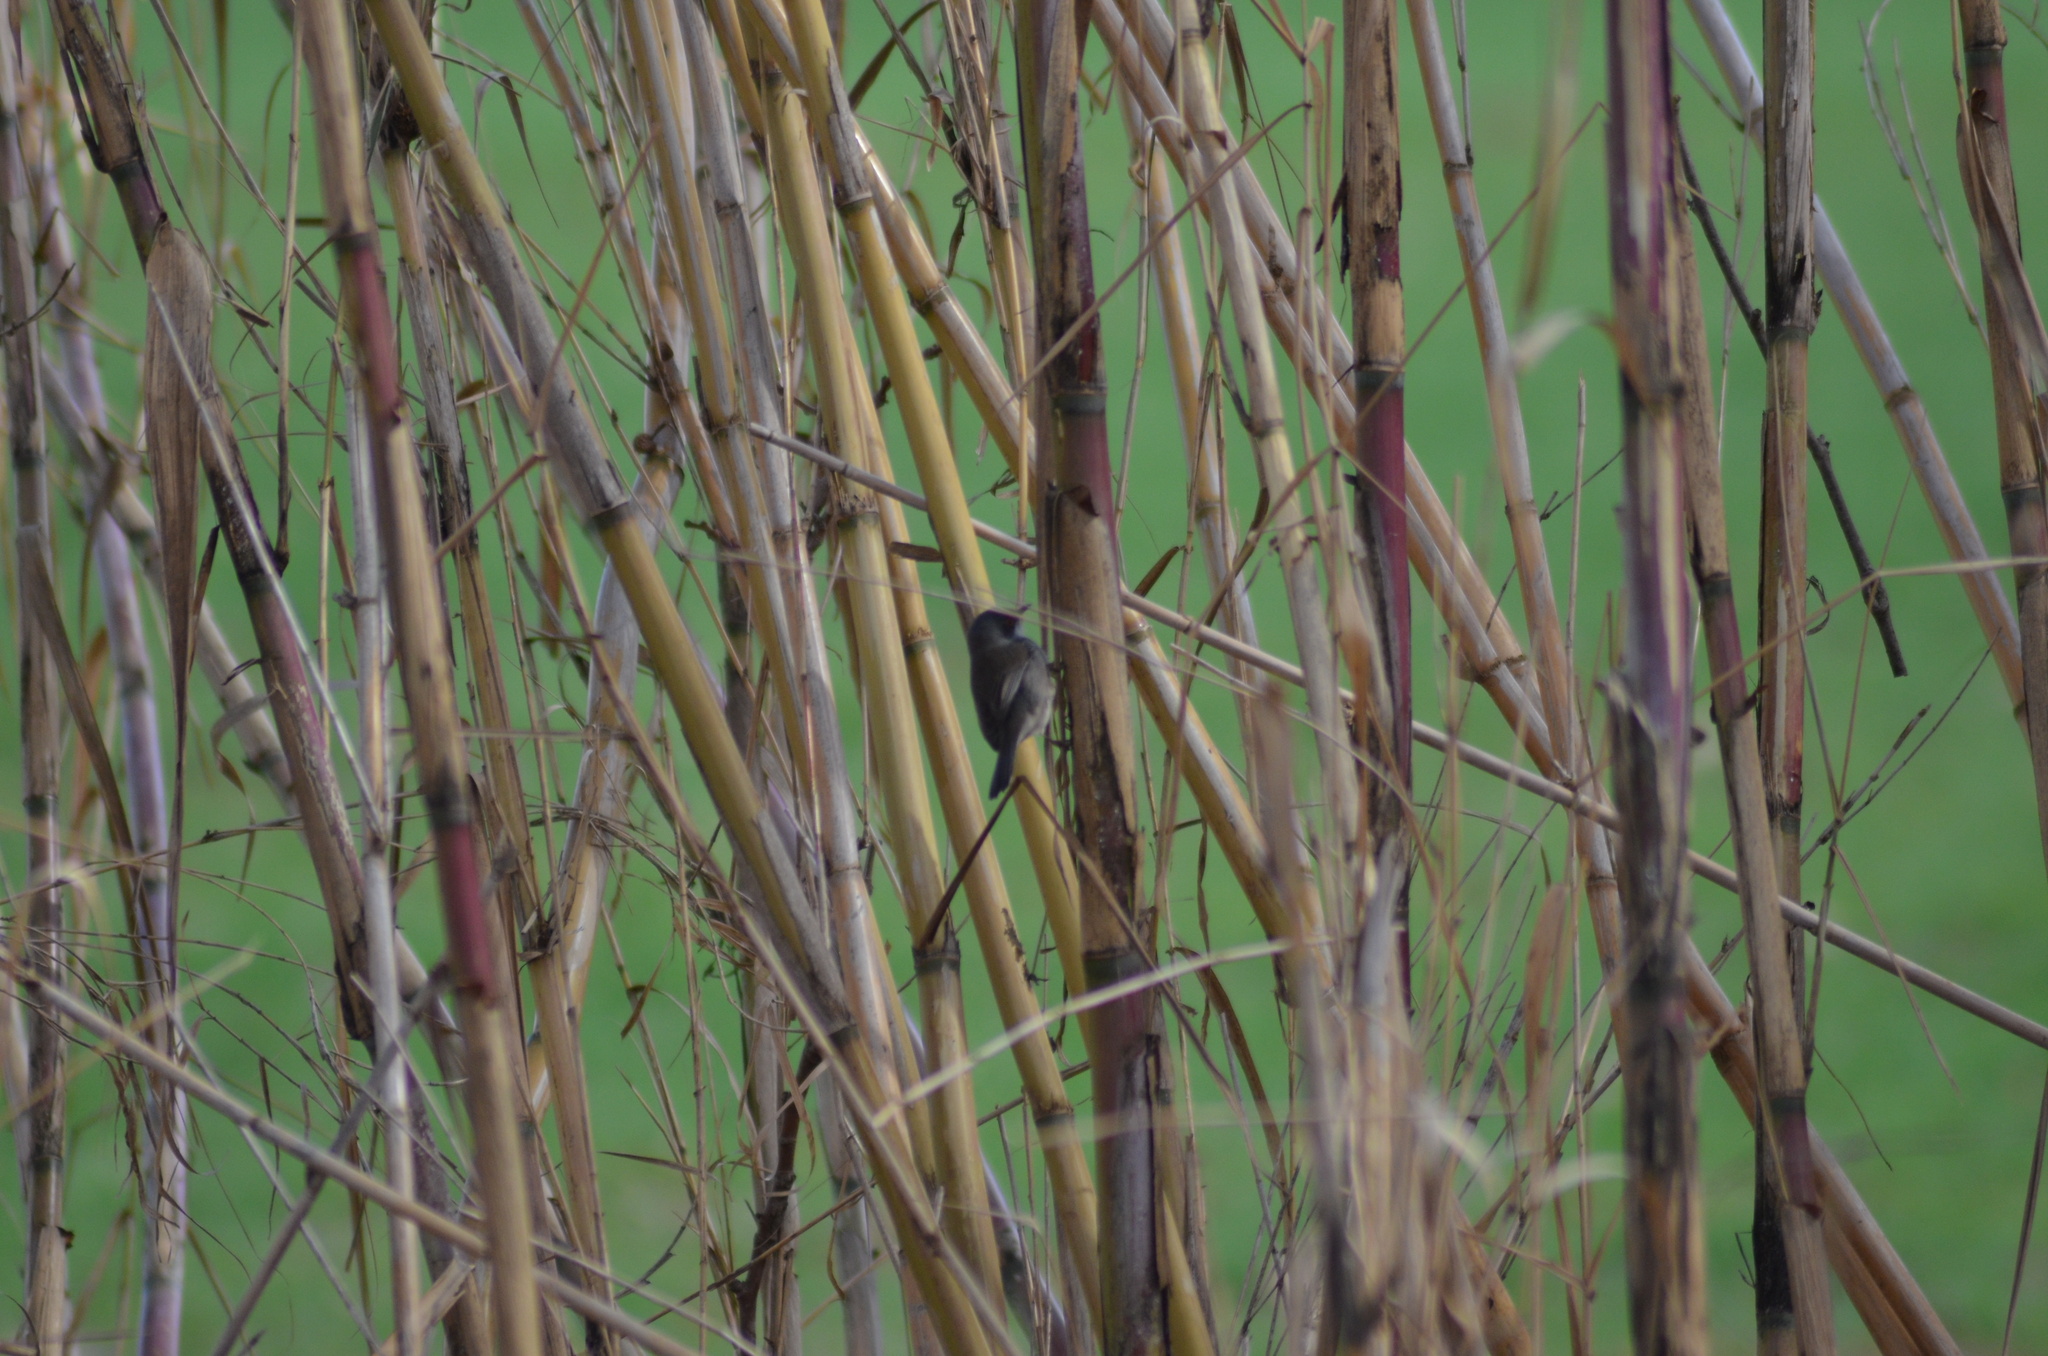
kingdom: Animalia
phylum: Chordata
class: Aves
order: Passeriformes
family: Sylviidae
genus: Curruca
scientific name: Curruca melanocephala
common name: Sardinian warbler
